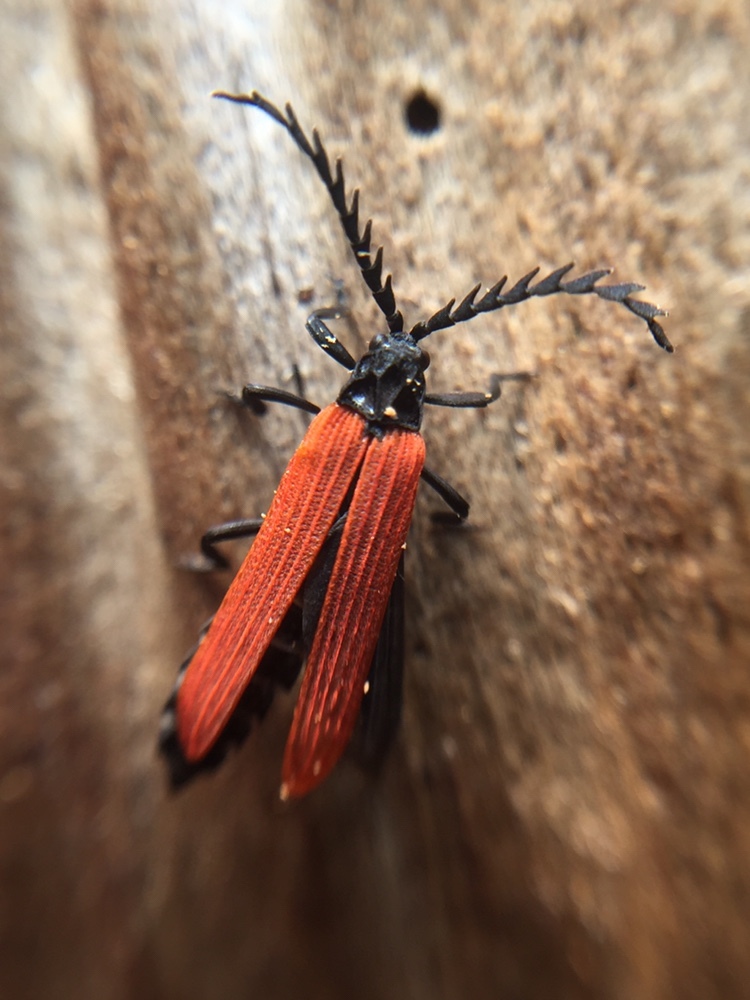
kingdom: Animalia
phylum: Arthropoda
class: Insecta
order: Coleoptera
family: Lycidae
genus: Porrostoma
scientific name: Porrostoma rufipenne
